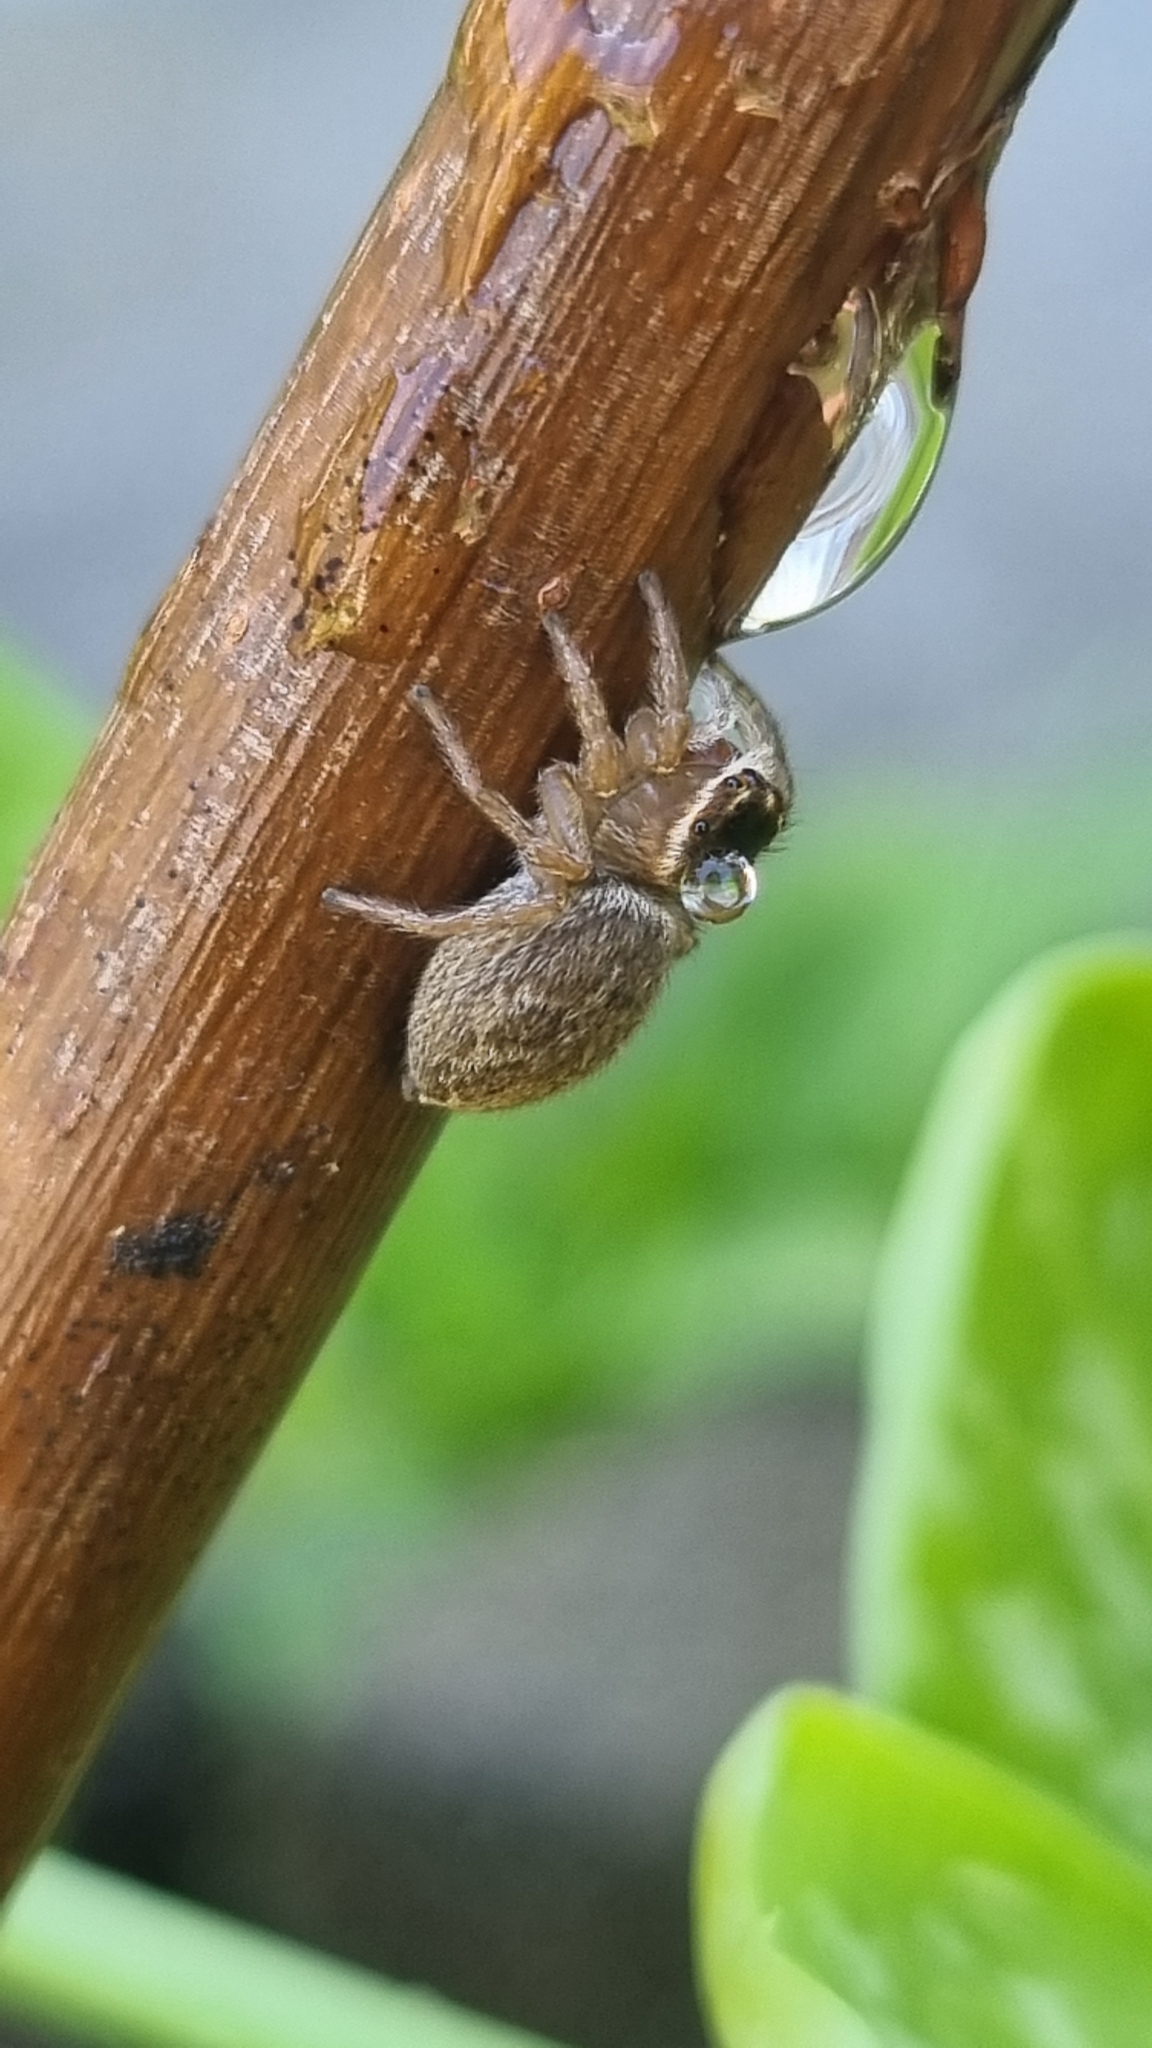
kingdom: Animalia
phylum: Arthropoda
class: Arachnida
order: Araneae
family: Salticidae
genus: Maratus
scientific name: Maratus griseus
